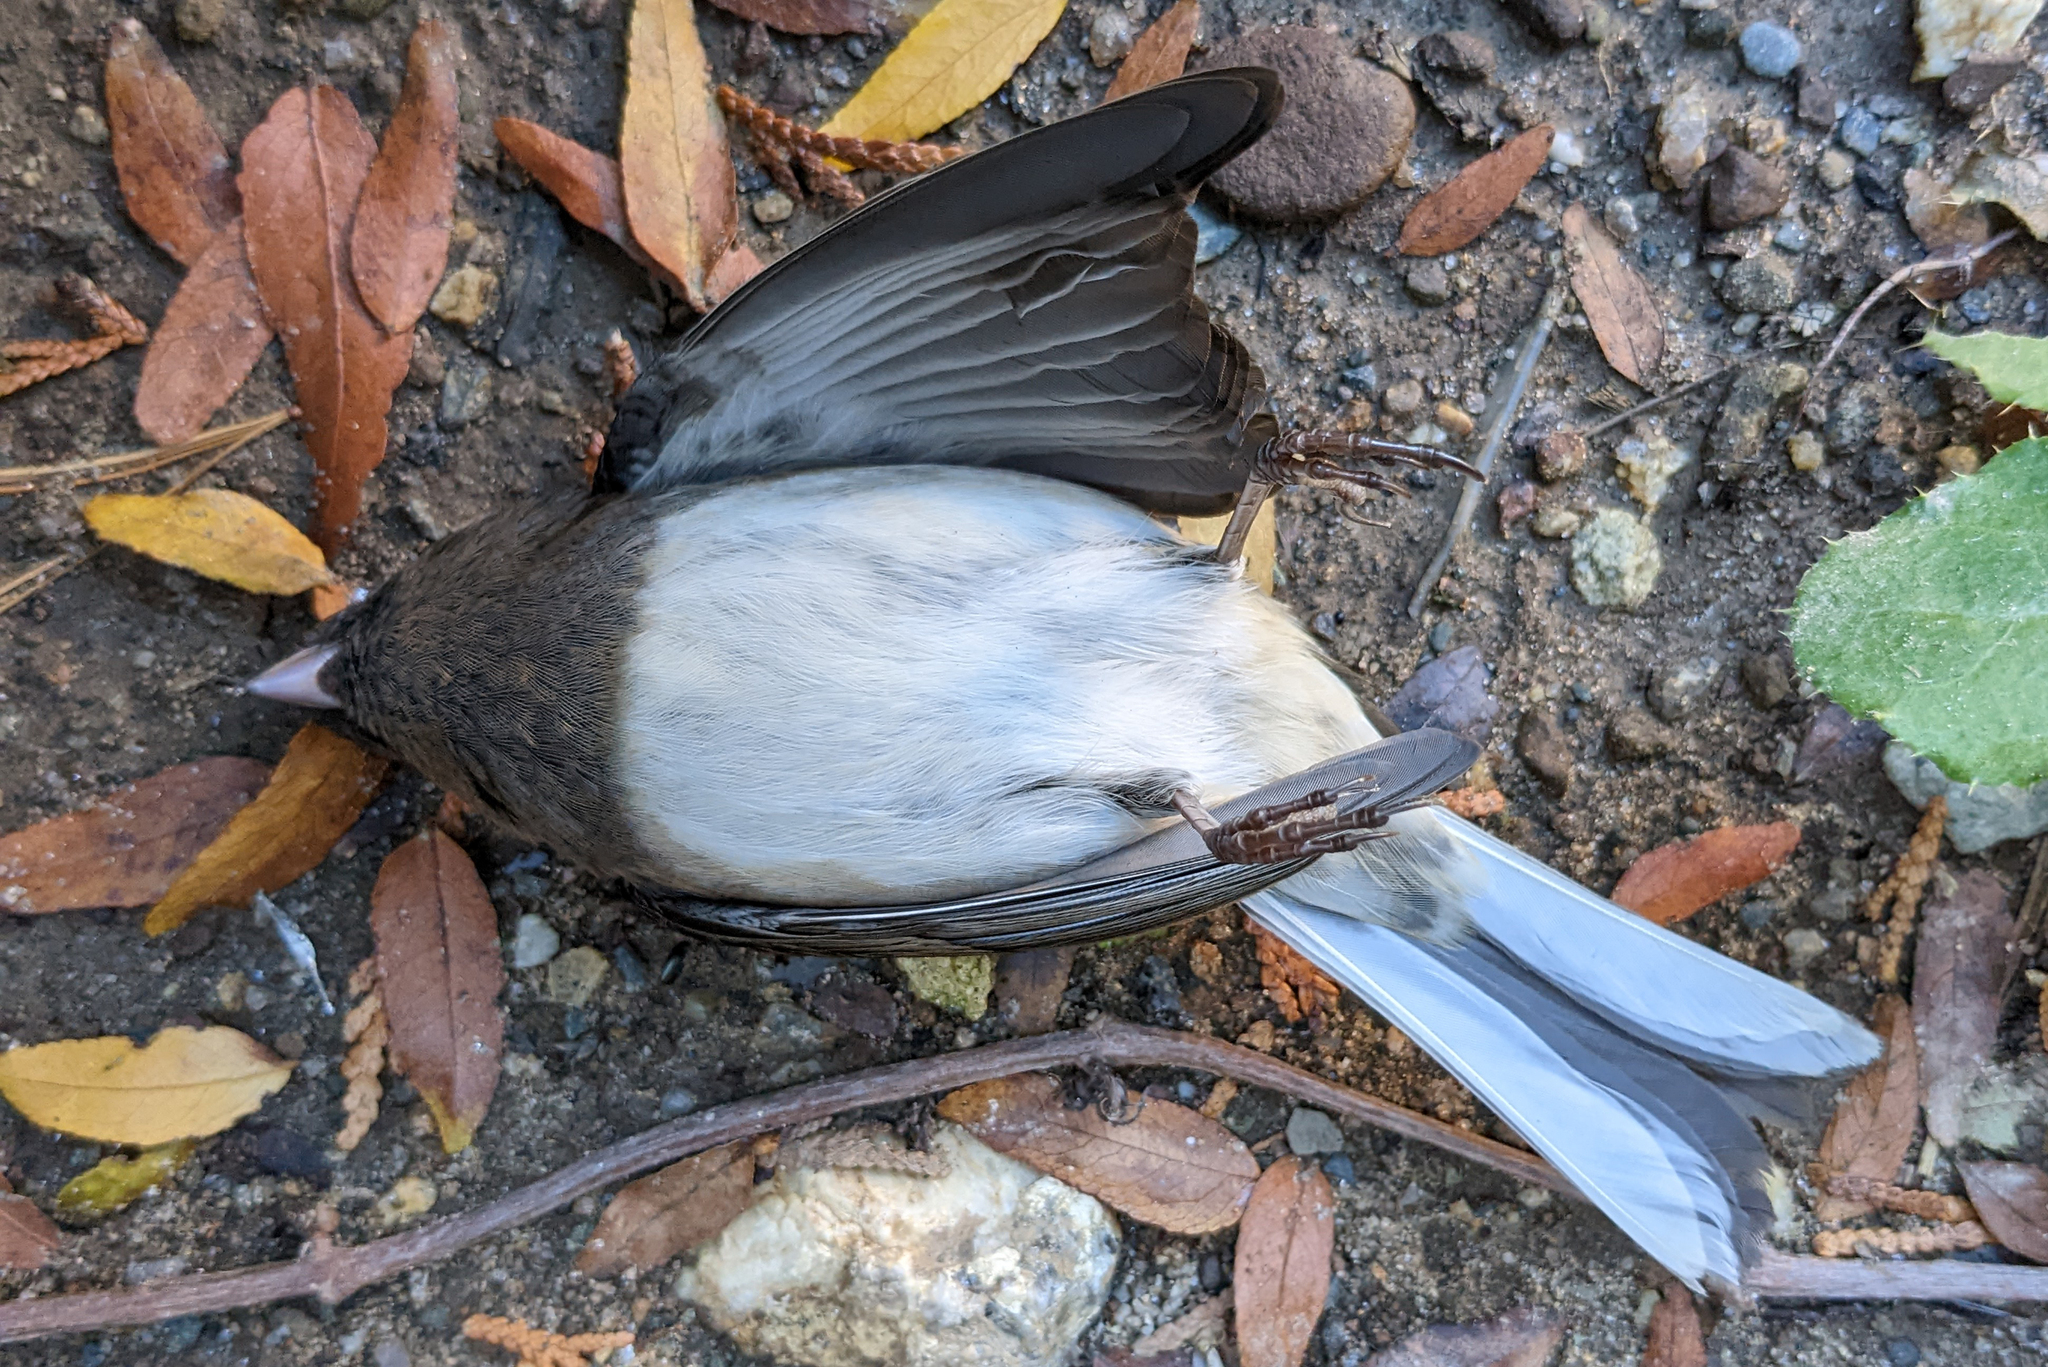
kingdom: Animalia
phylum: Chordata
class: Aves
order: Passeriformes
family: Passerellidae
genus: Junco
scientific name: Junco hyemalis
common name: Dark-eyed junco
